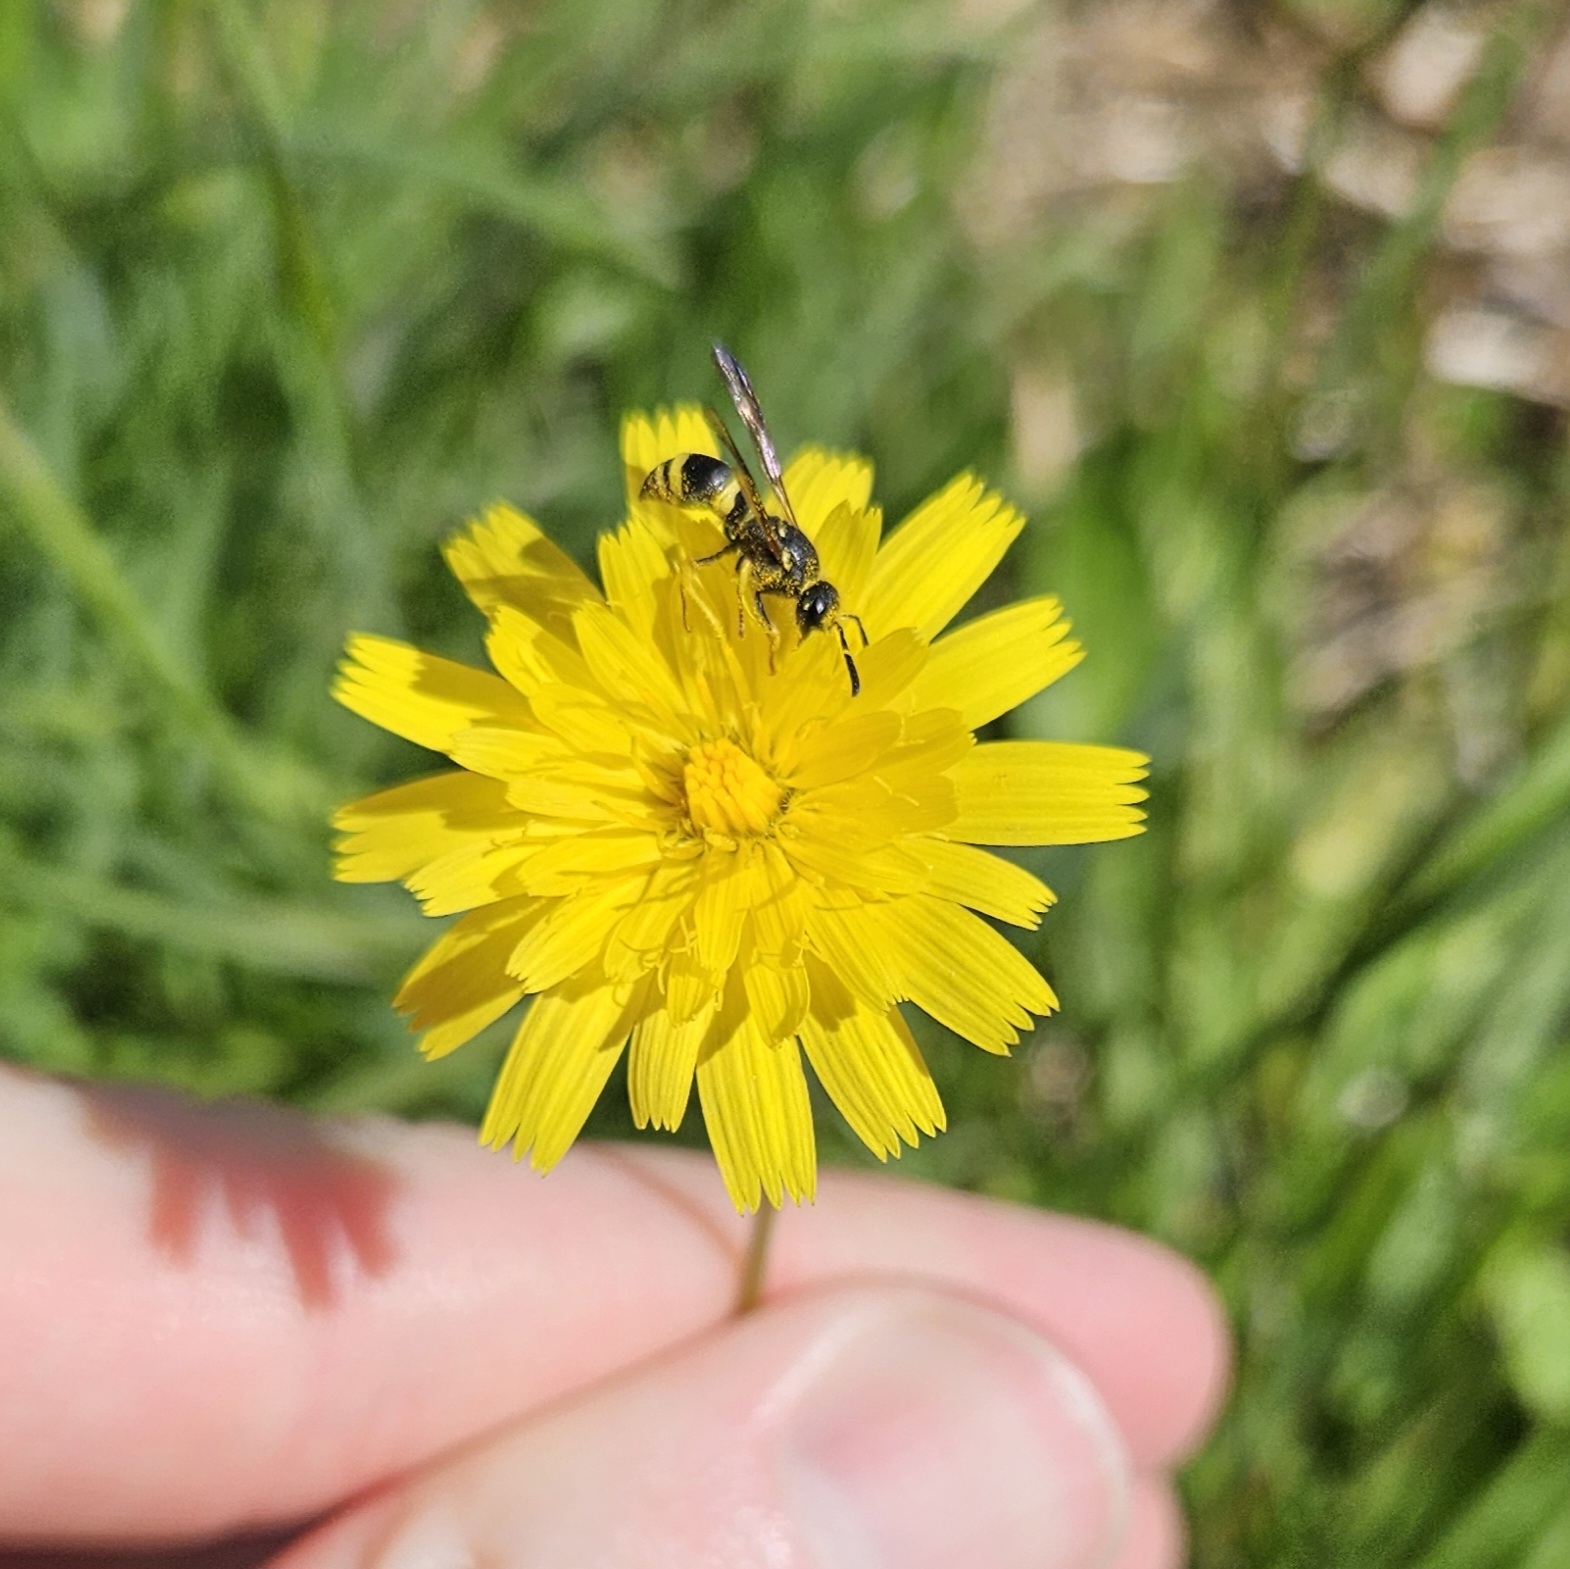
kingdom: Animalia
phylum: Arthropoda
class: Insecta
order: Hymenoptera
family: Vespidae
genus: Ancistrocerus
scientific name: Ancistrocerus gazella
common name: European tube wasp
